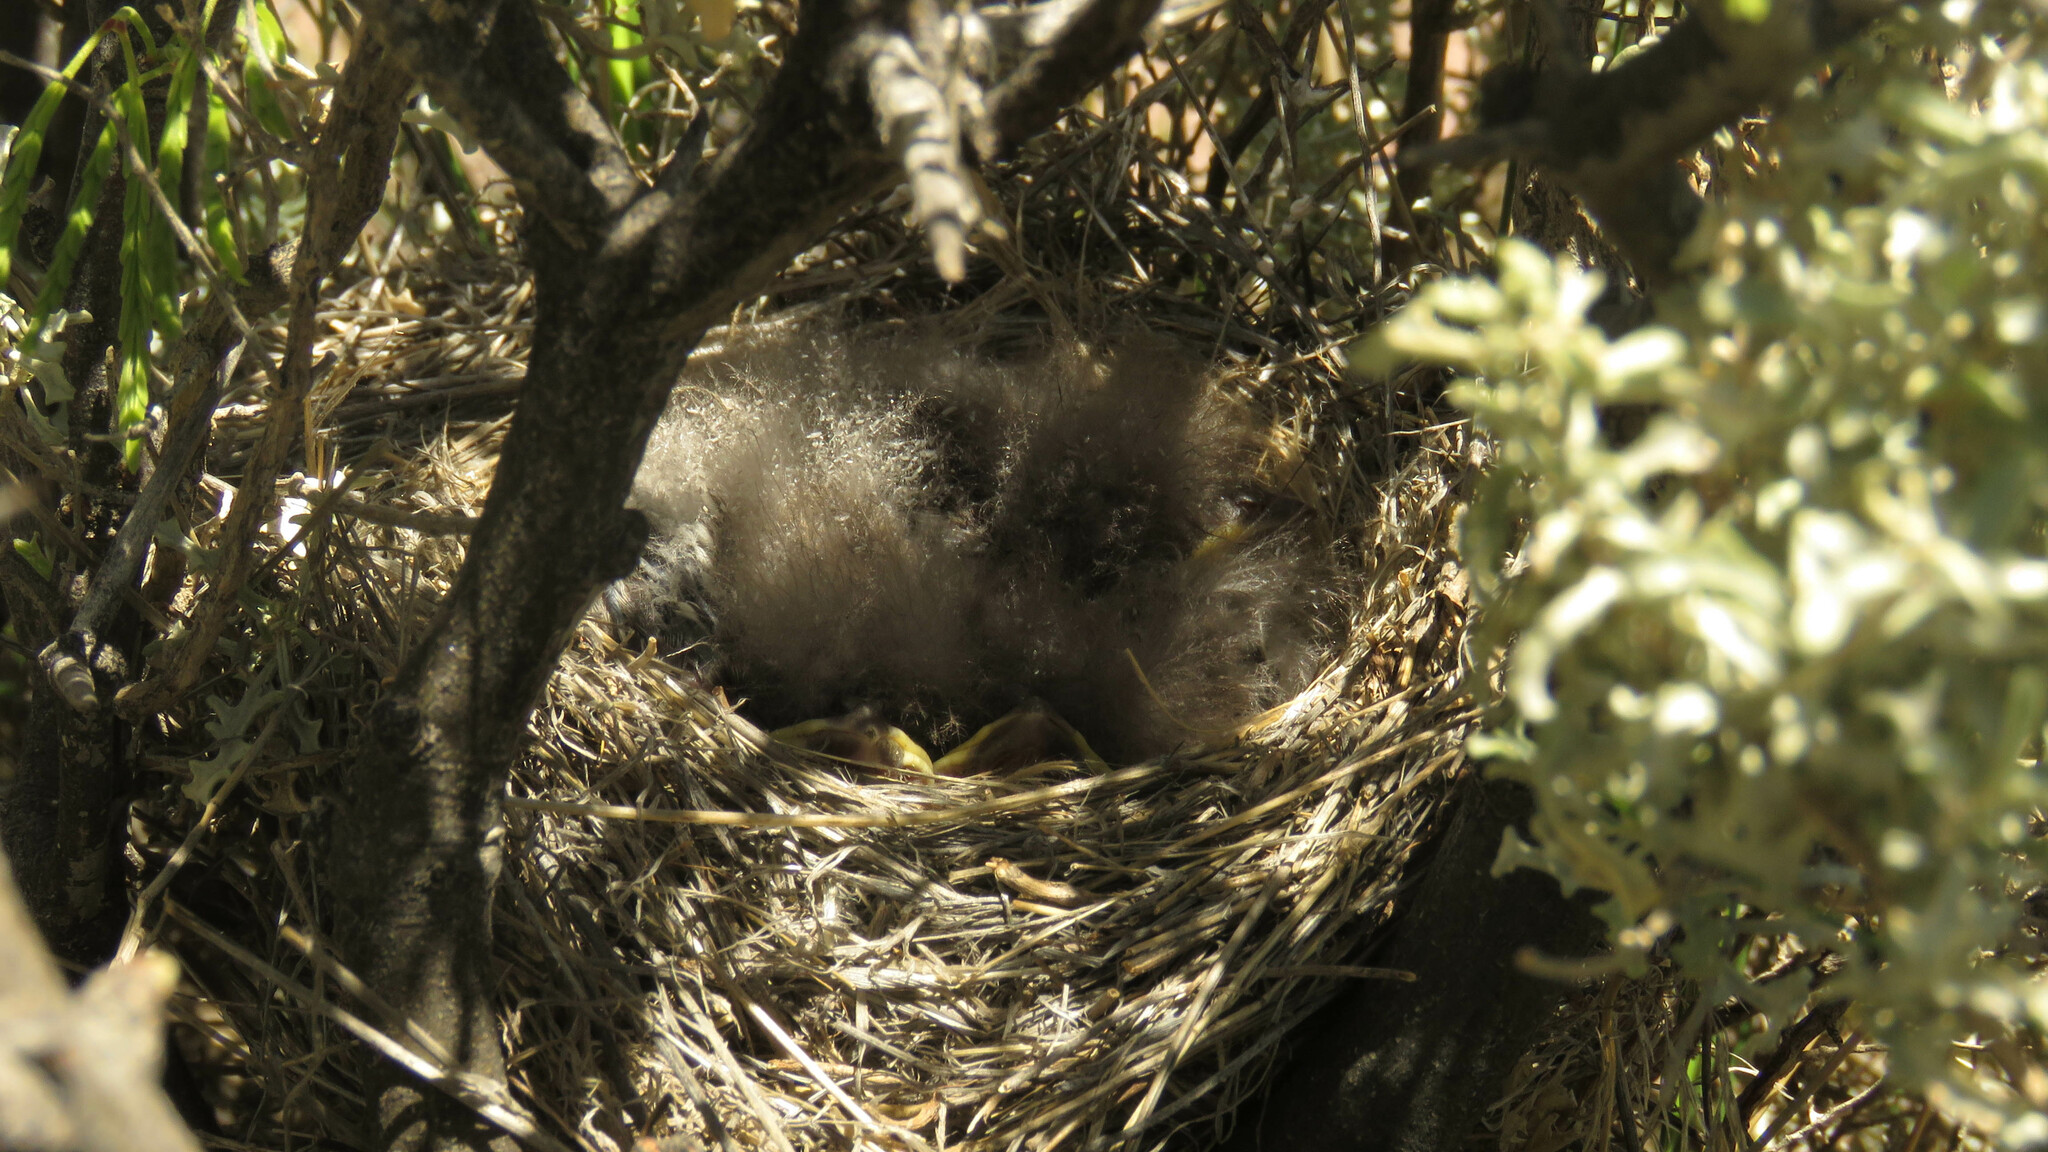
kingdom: Animalia
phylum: Chordata
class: Aves
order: Passeriformes
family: Thraupidae
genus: Rhopospina
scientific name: Rhopospina fruticeti
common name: Mourning sierra finch
